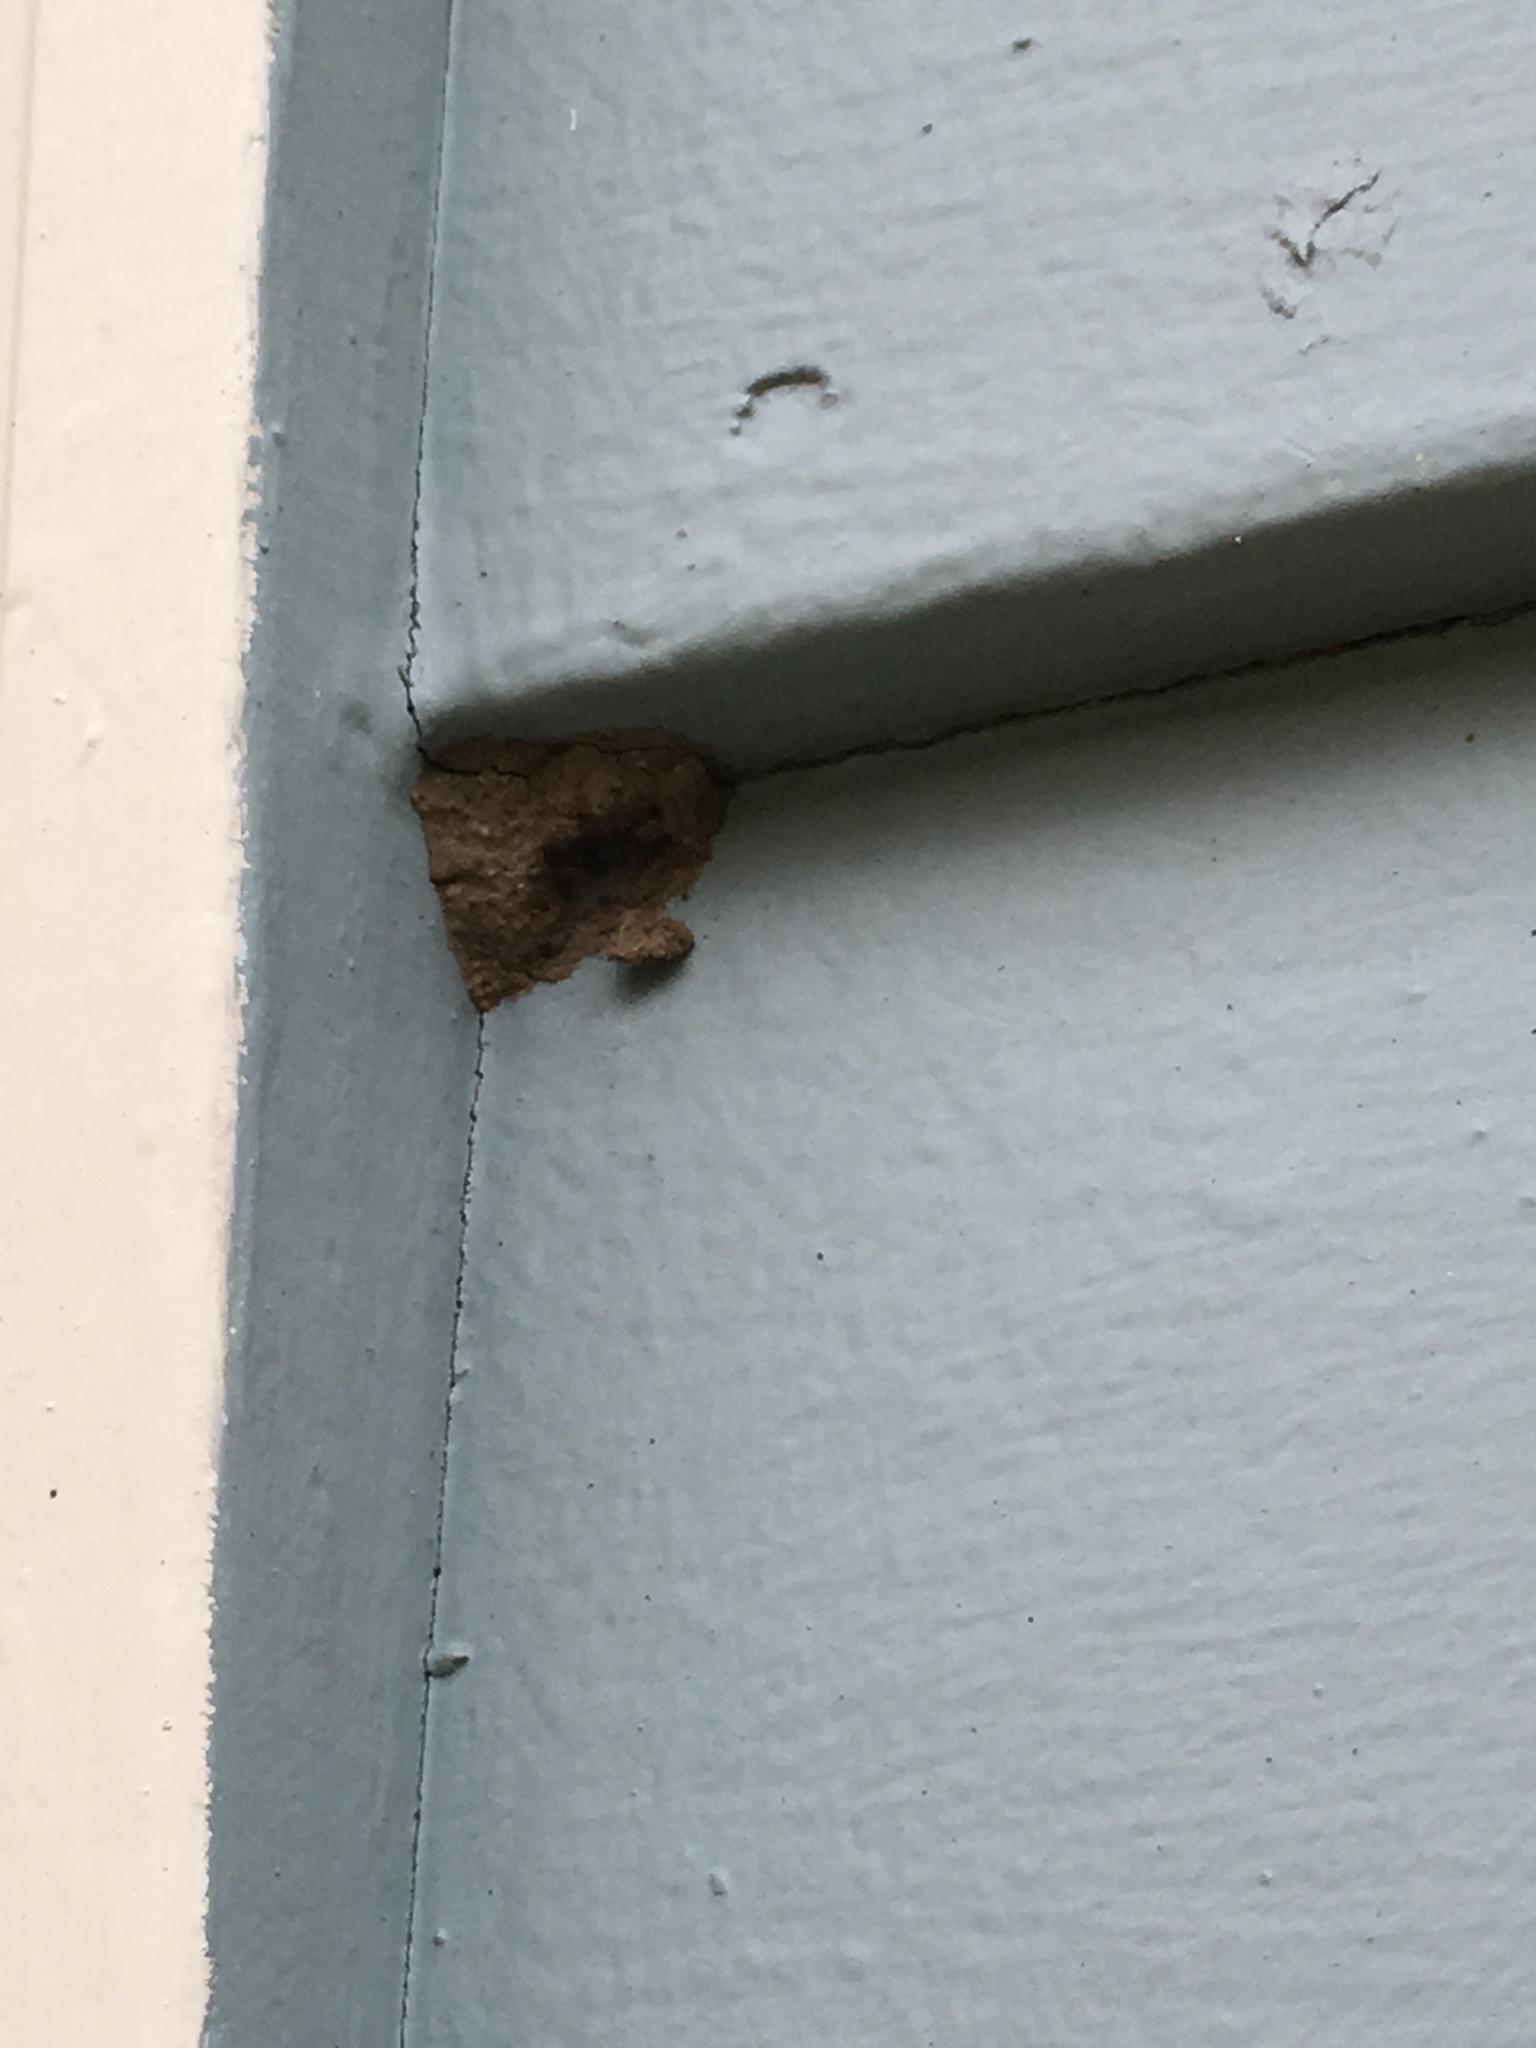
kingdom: Animalia
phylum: Arthropoda
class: Insecta
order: Hymenoptera
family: Sphecidae
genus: Sceliphron
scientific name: Sceliphron caementarium
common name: Mud dauber
